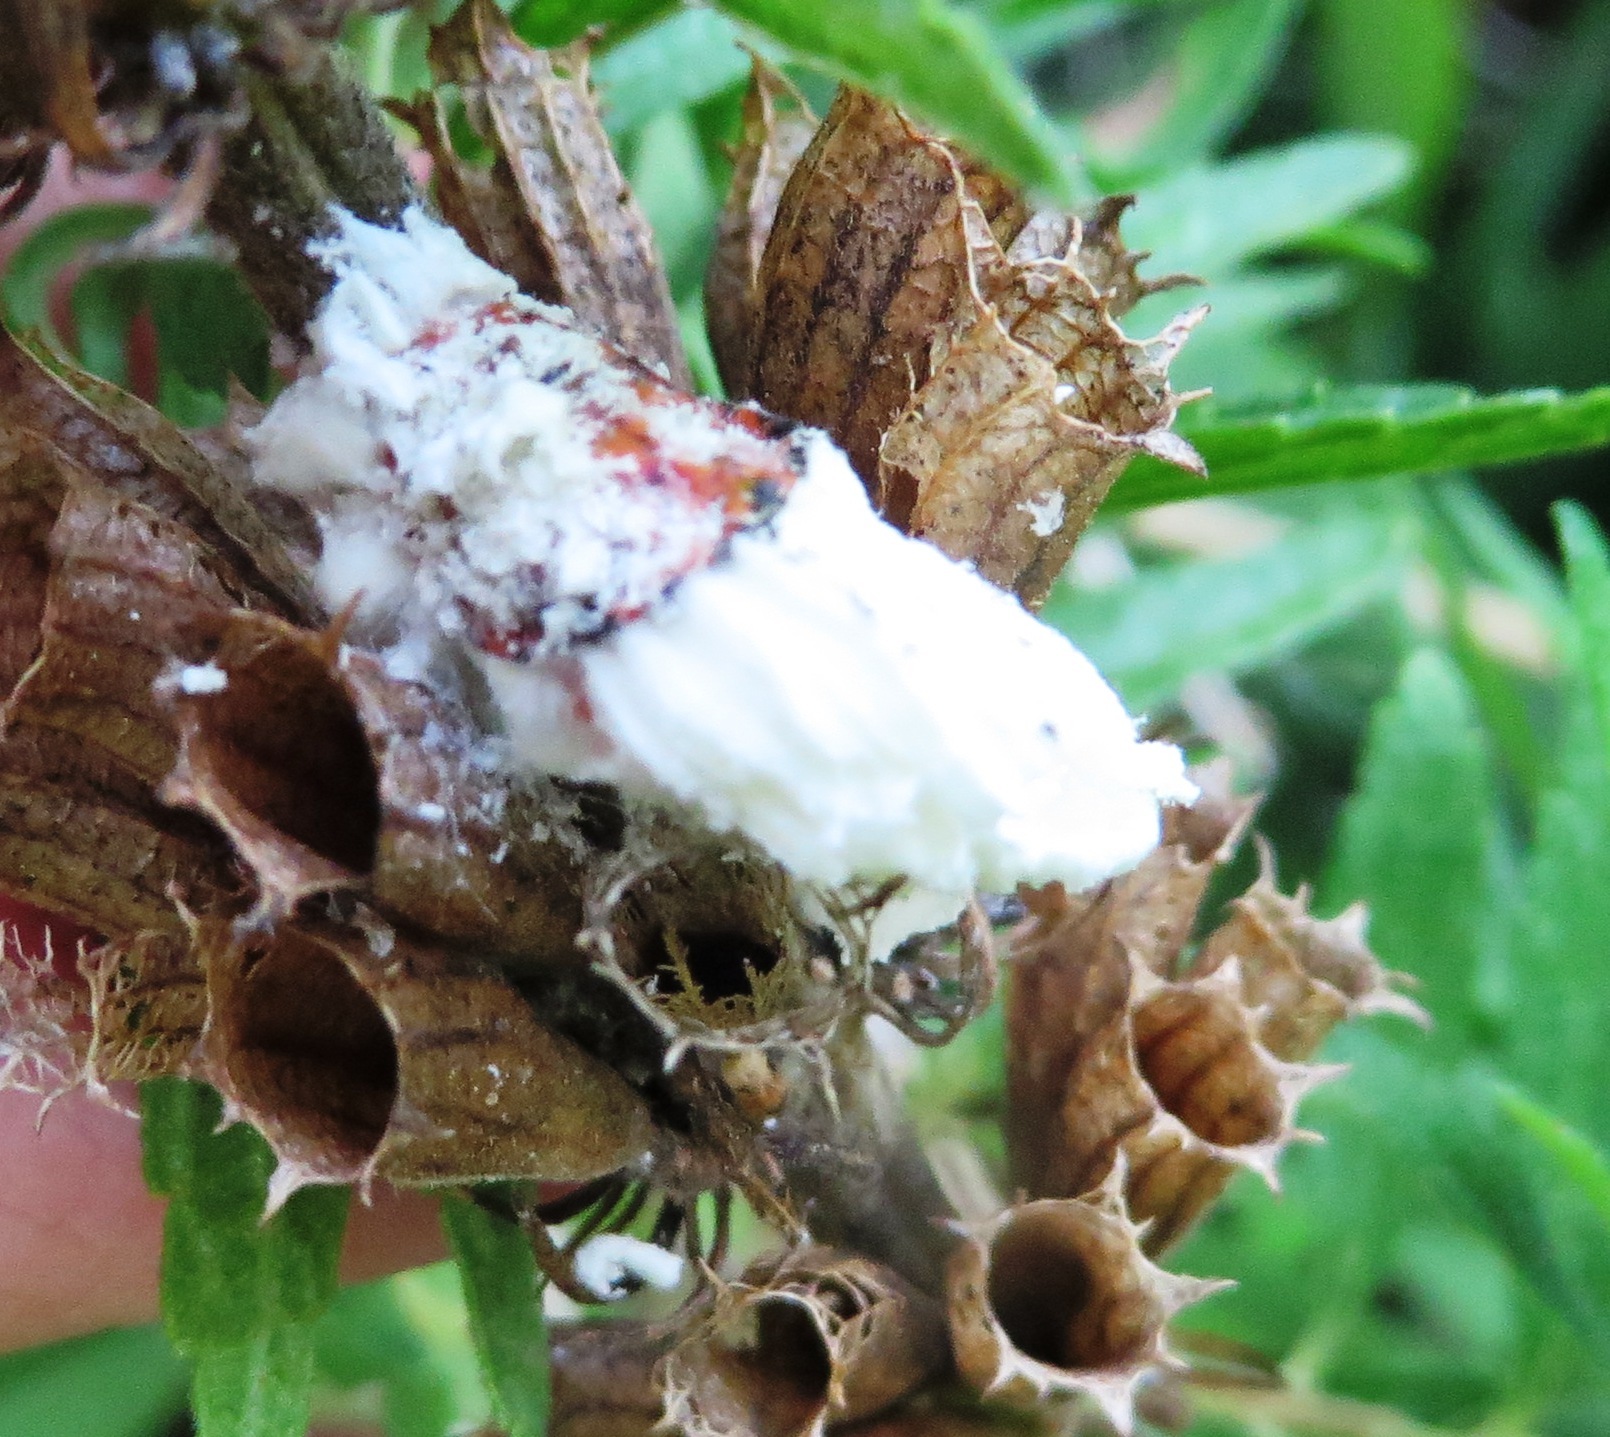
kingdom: Animalia
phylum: Arthropoda
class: Insecta
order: Hemiptera
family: Margarodidae
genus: Icerya
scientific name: Icerya purchasi
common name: Cottony cushion scale
